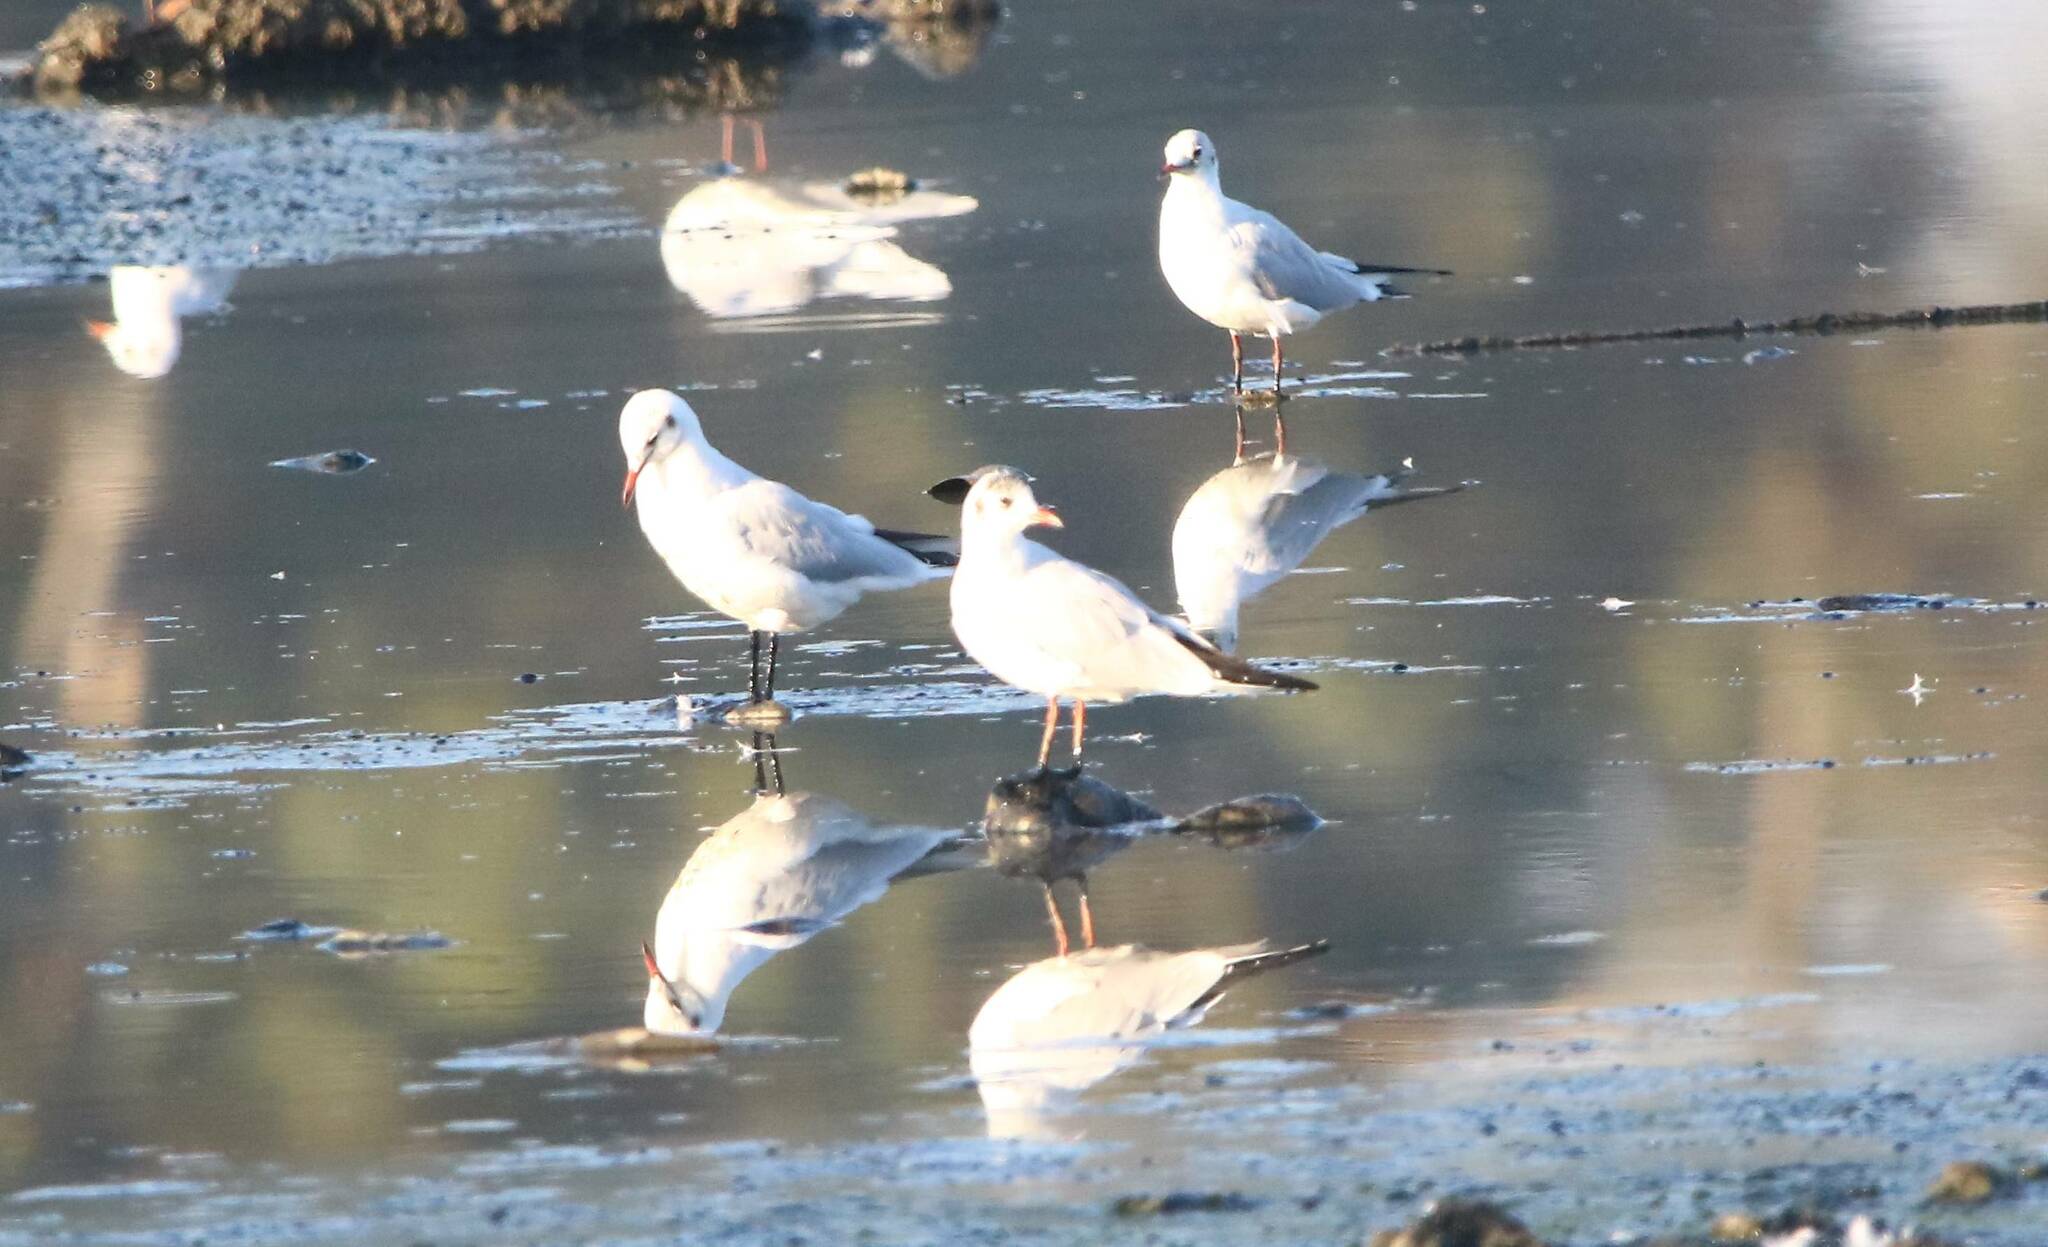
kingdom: Animalia
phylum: Chordata
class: Aves
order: Charadriiformes
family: Laridae
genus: Chroicocephalus
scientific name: Chroicocephalus ridibundus
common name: Black-headed gull
